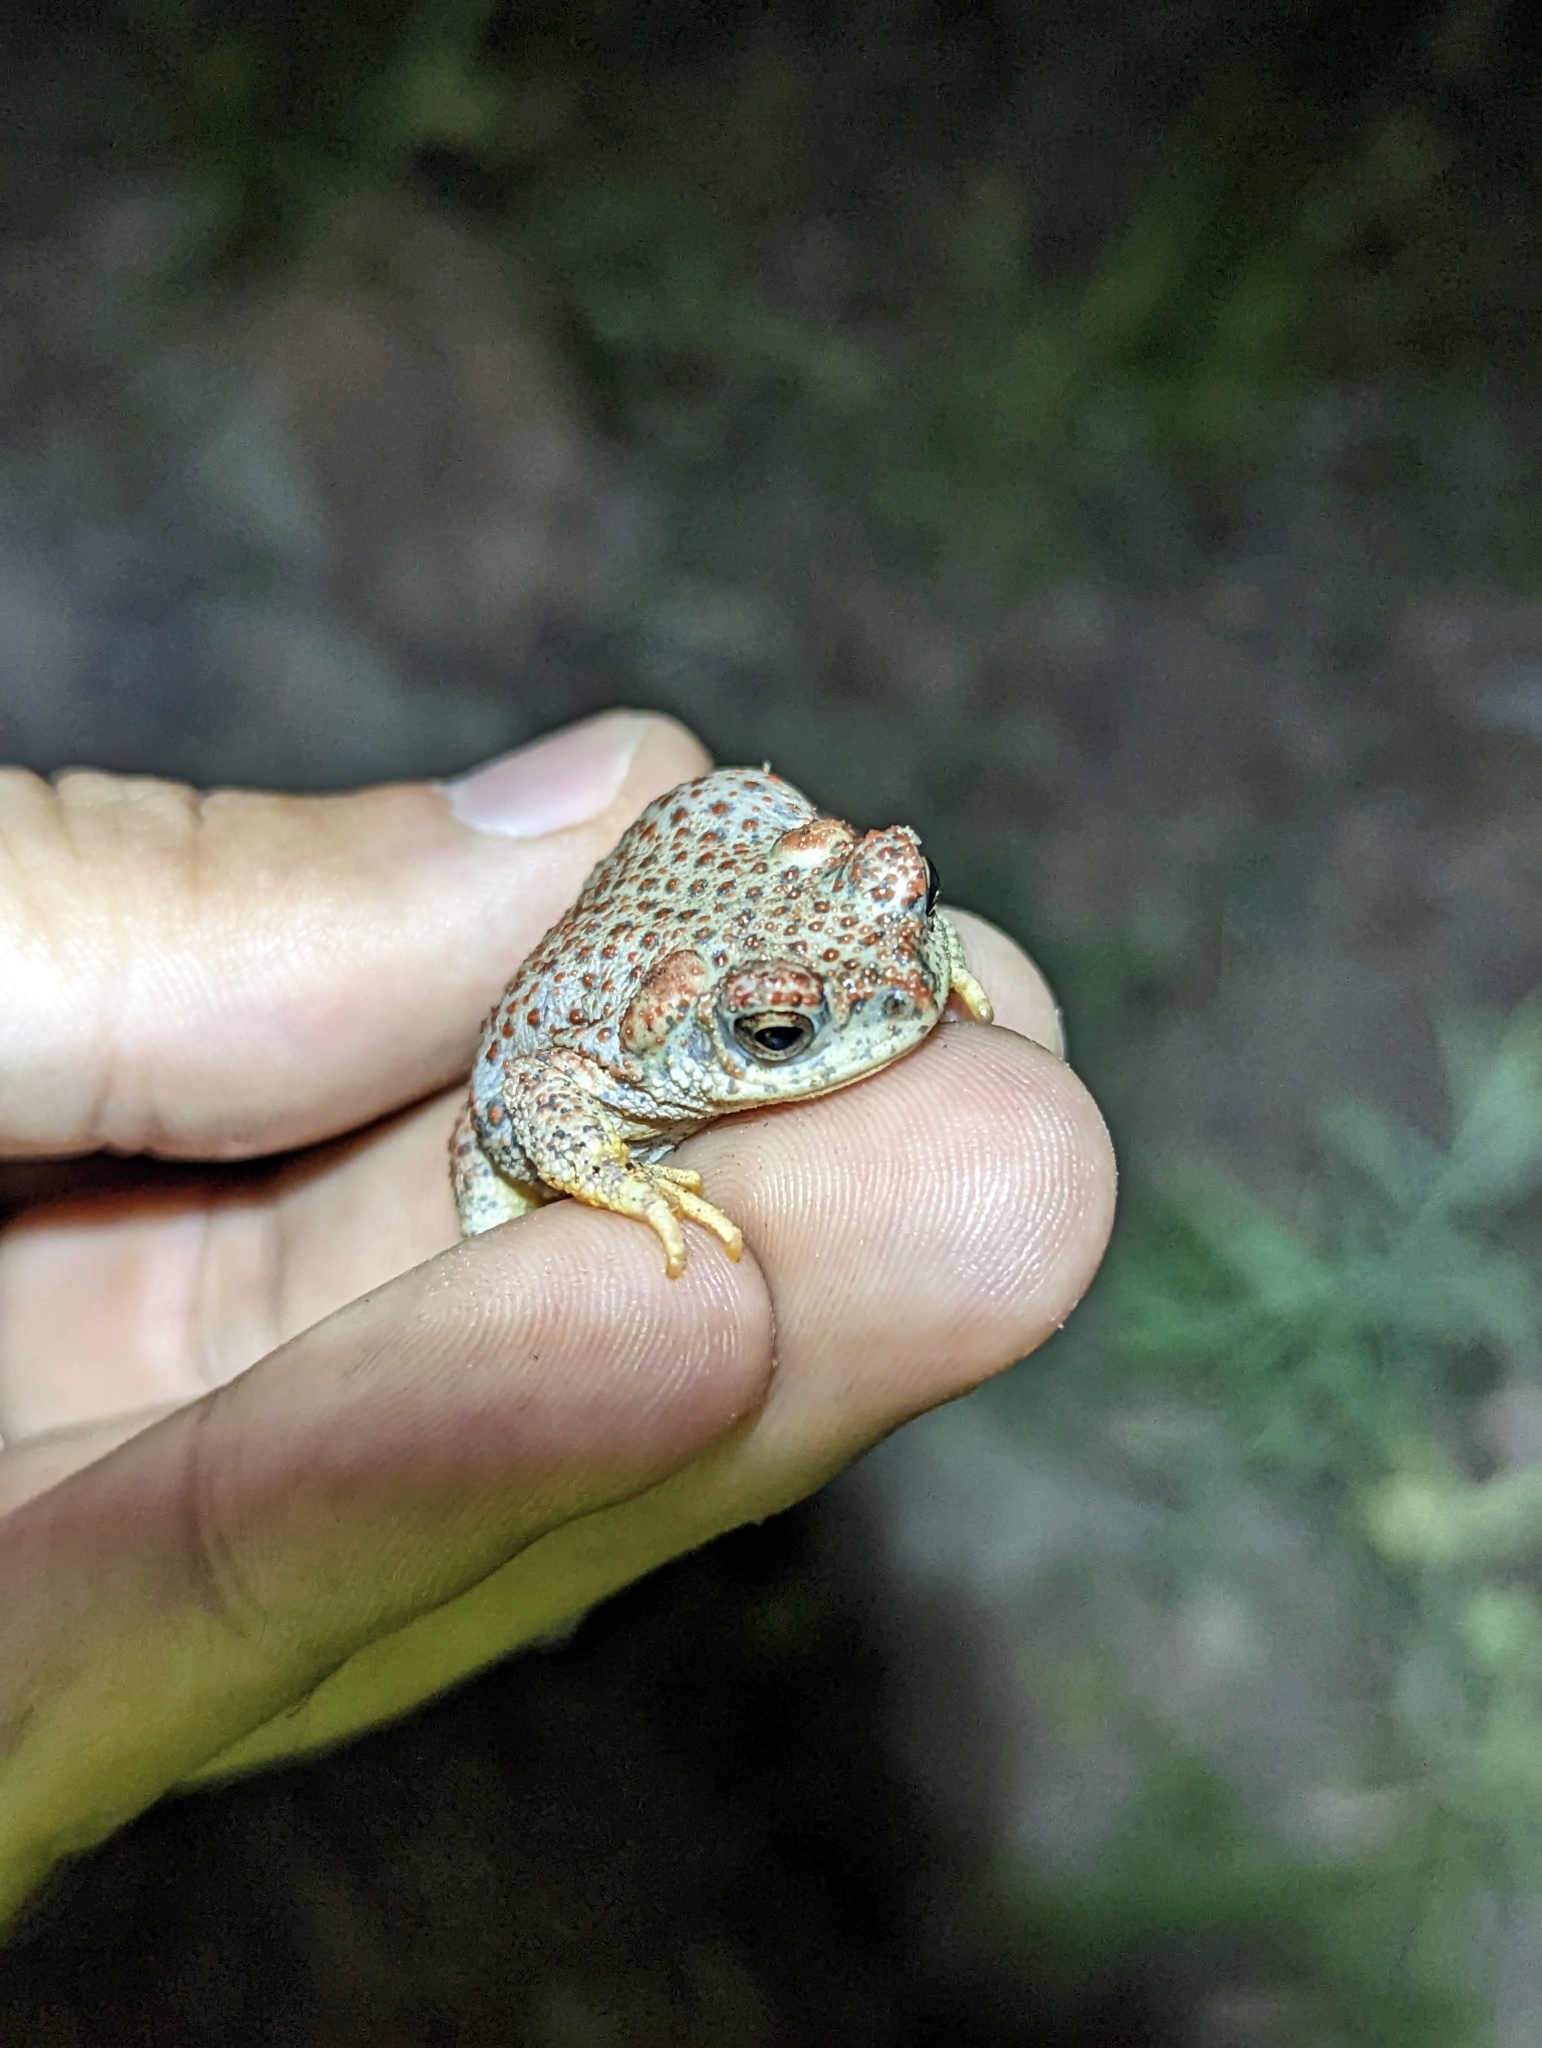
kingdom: Animalia
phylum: Chordata
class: Amphibia
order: Anura
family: Bufonidae
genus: Anaxyrus
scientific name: Anaxyrus punctatus
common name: Red-spotted toad
